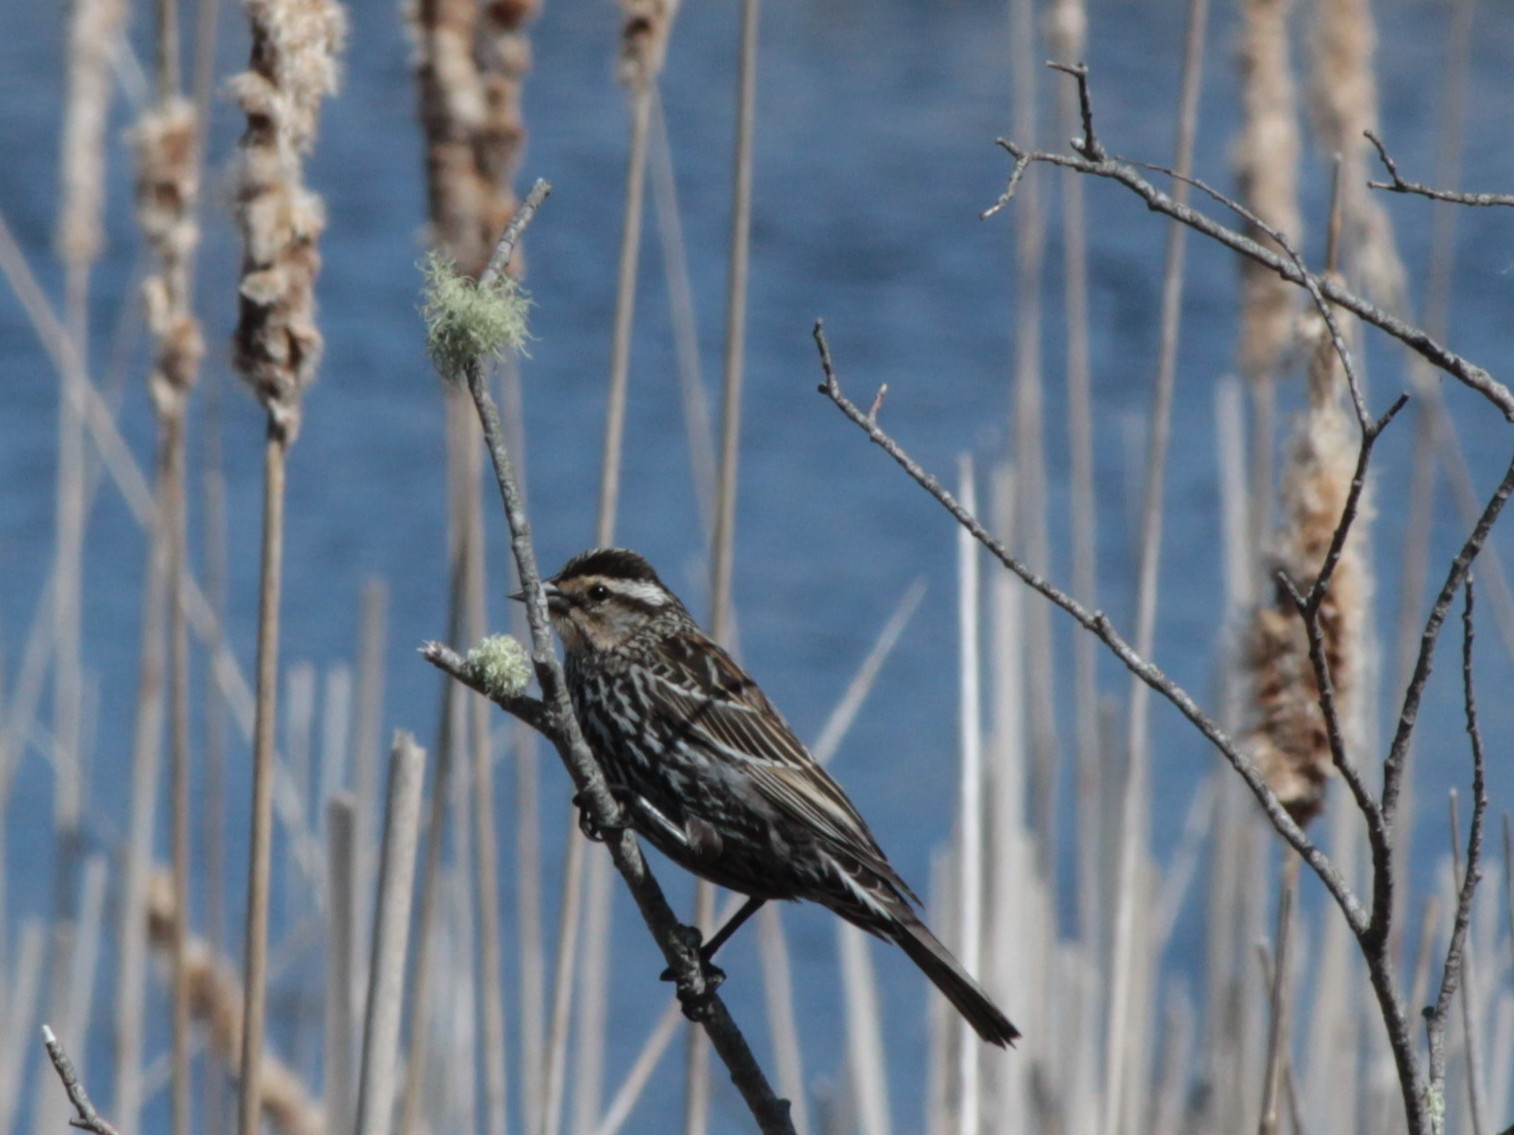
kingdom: Animalia
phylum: Chordata
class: Aves
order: Passeriformes
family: Icteridae
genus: Agelaius
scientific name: Agelaius phoeniceus
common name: Red-winged blackbird
